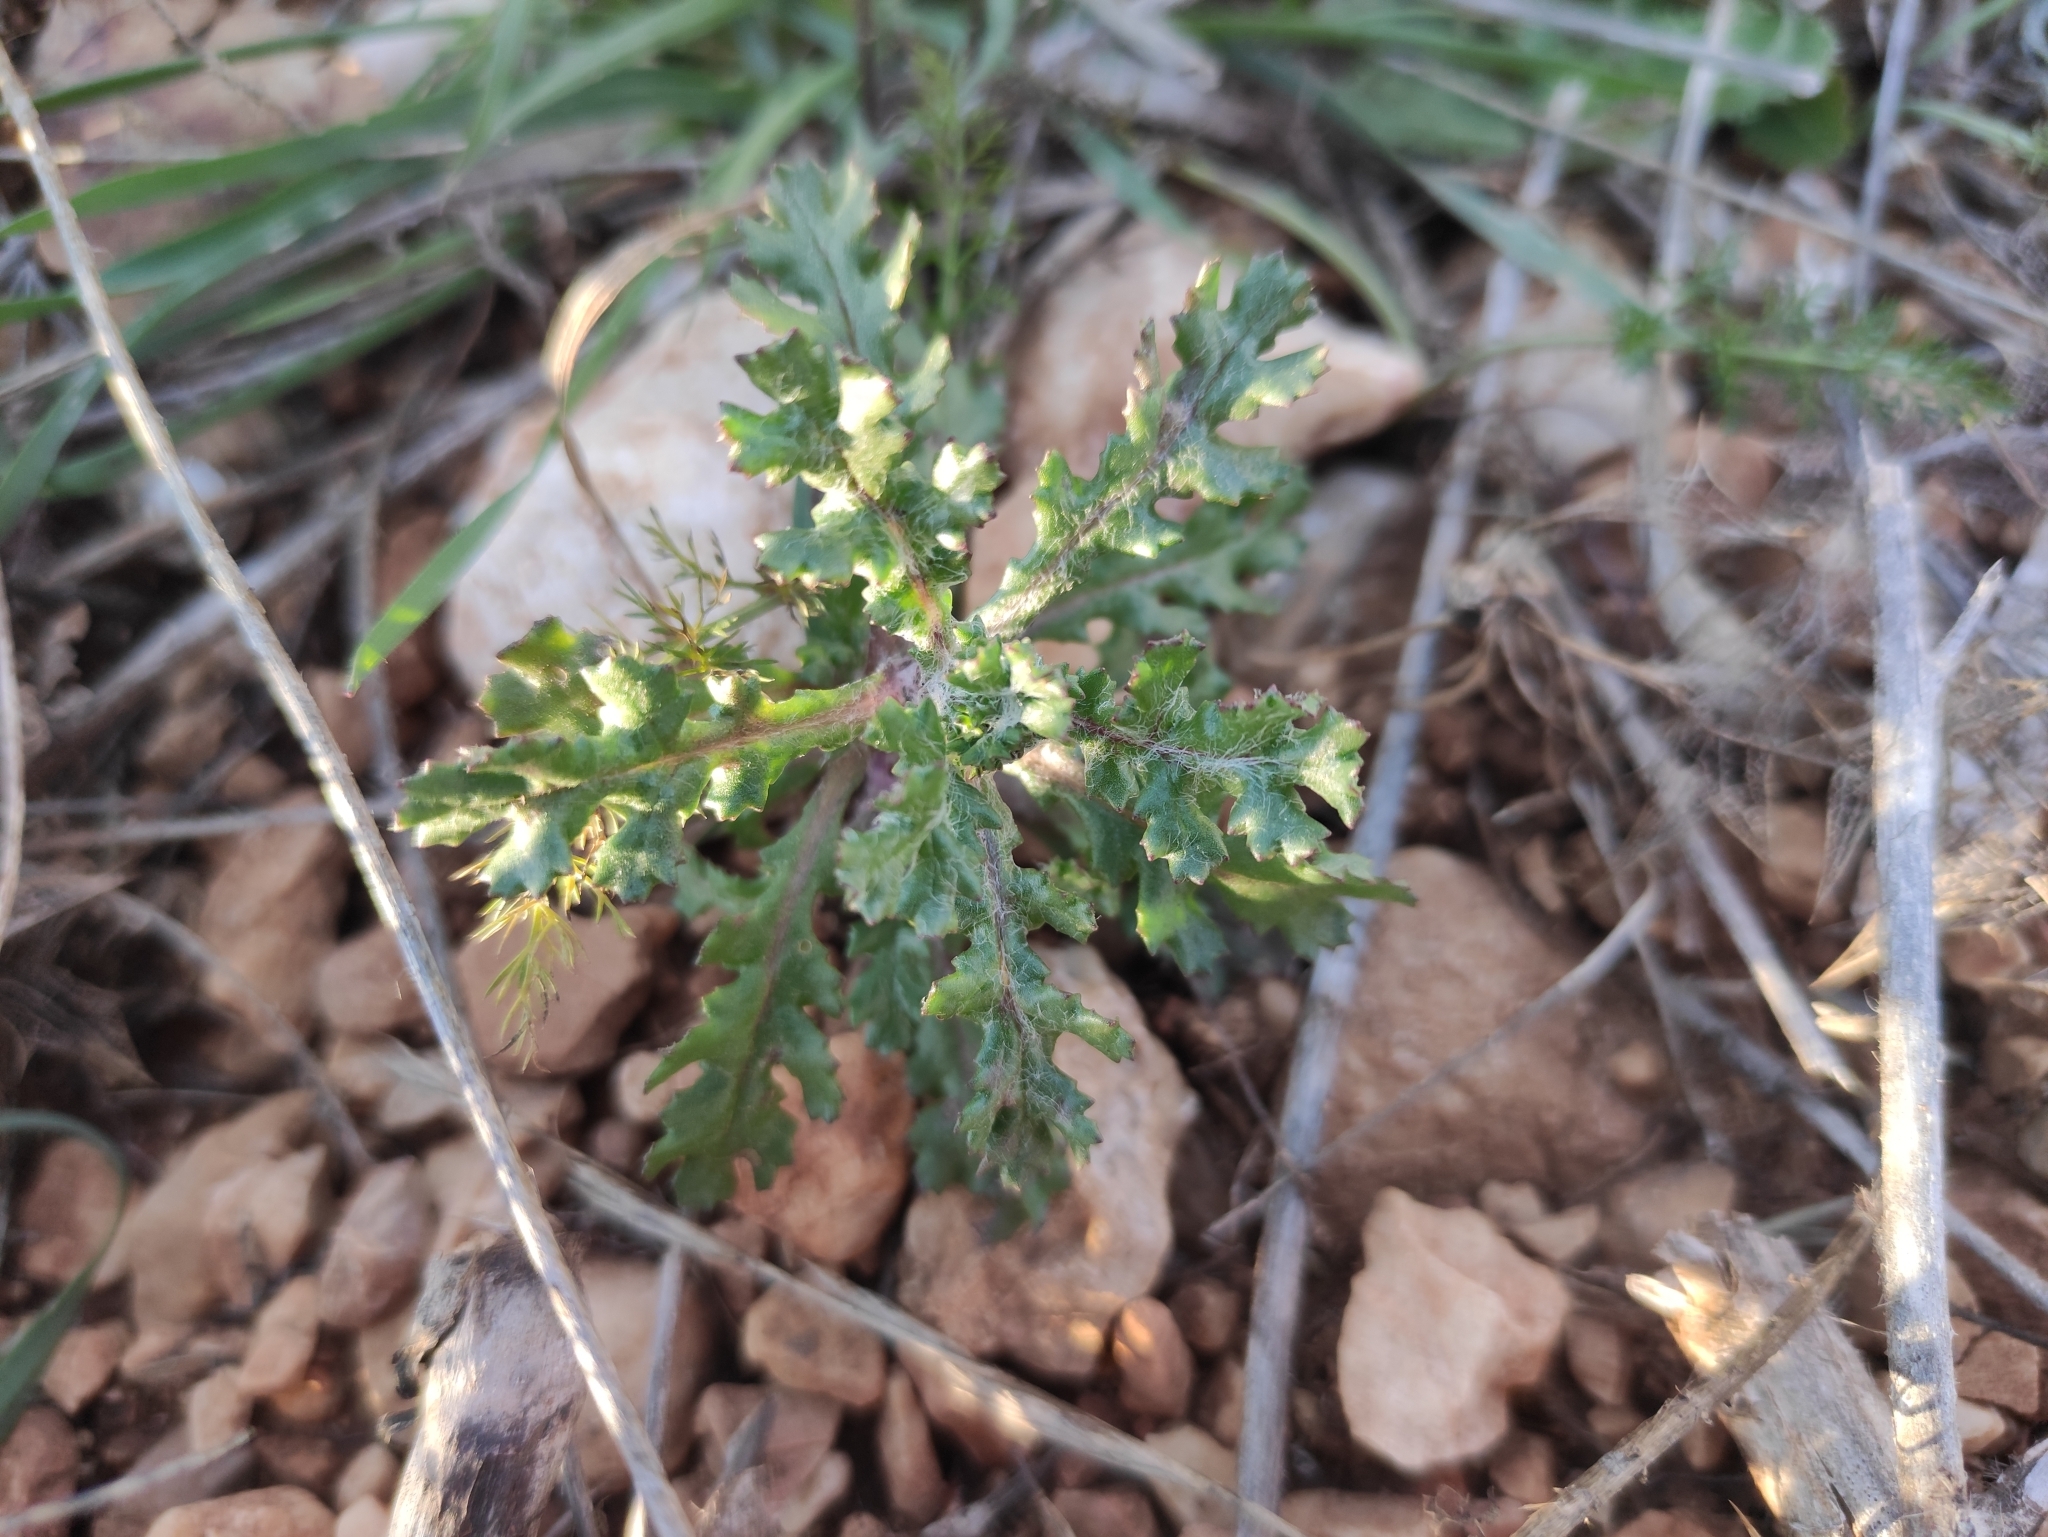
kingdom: Plantae
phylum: Tracheophyta
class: Magnoliopsida
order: Asterales
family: Asteraceae
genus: Senecio
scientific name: Senecio vulgaris
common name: Old-man-in-the-spring
